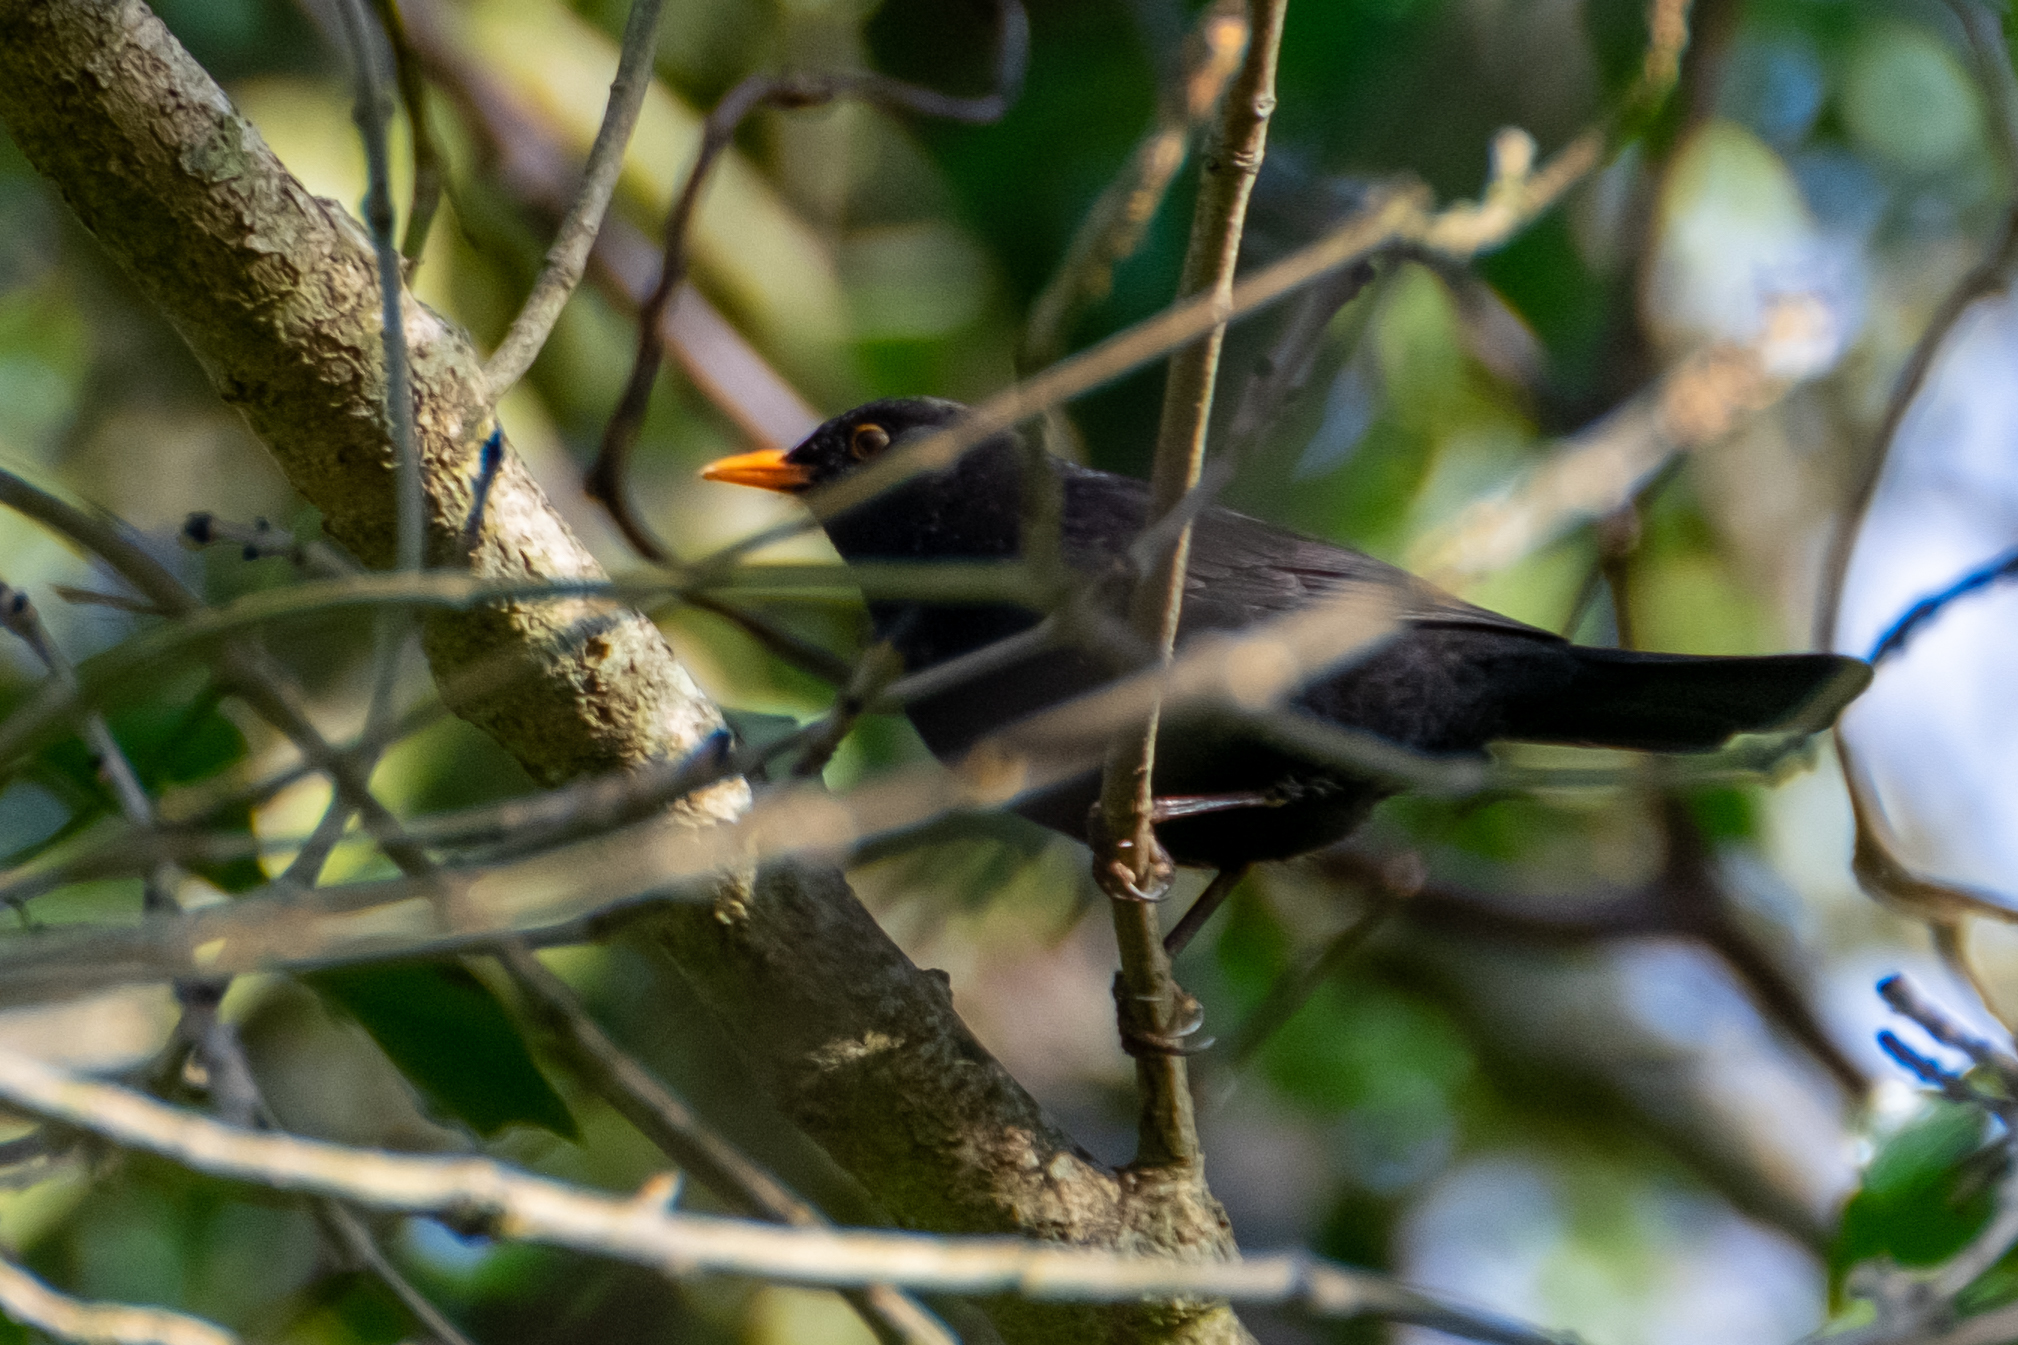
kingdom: Animalia
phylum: Chordata
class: Aves
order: Passeriformes
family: Turdidae
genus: Turdus
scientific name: Turdus merula
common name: Common blackbird
